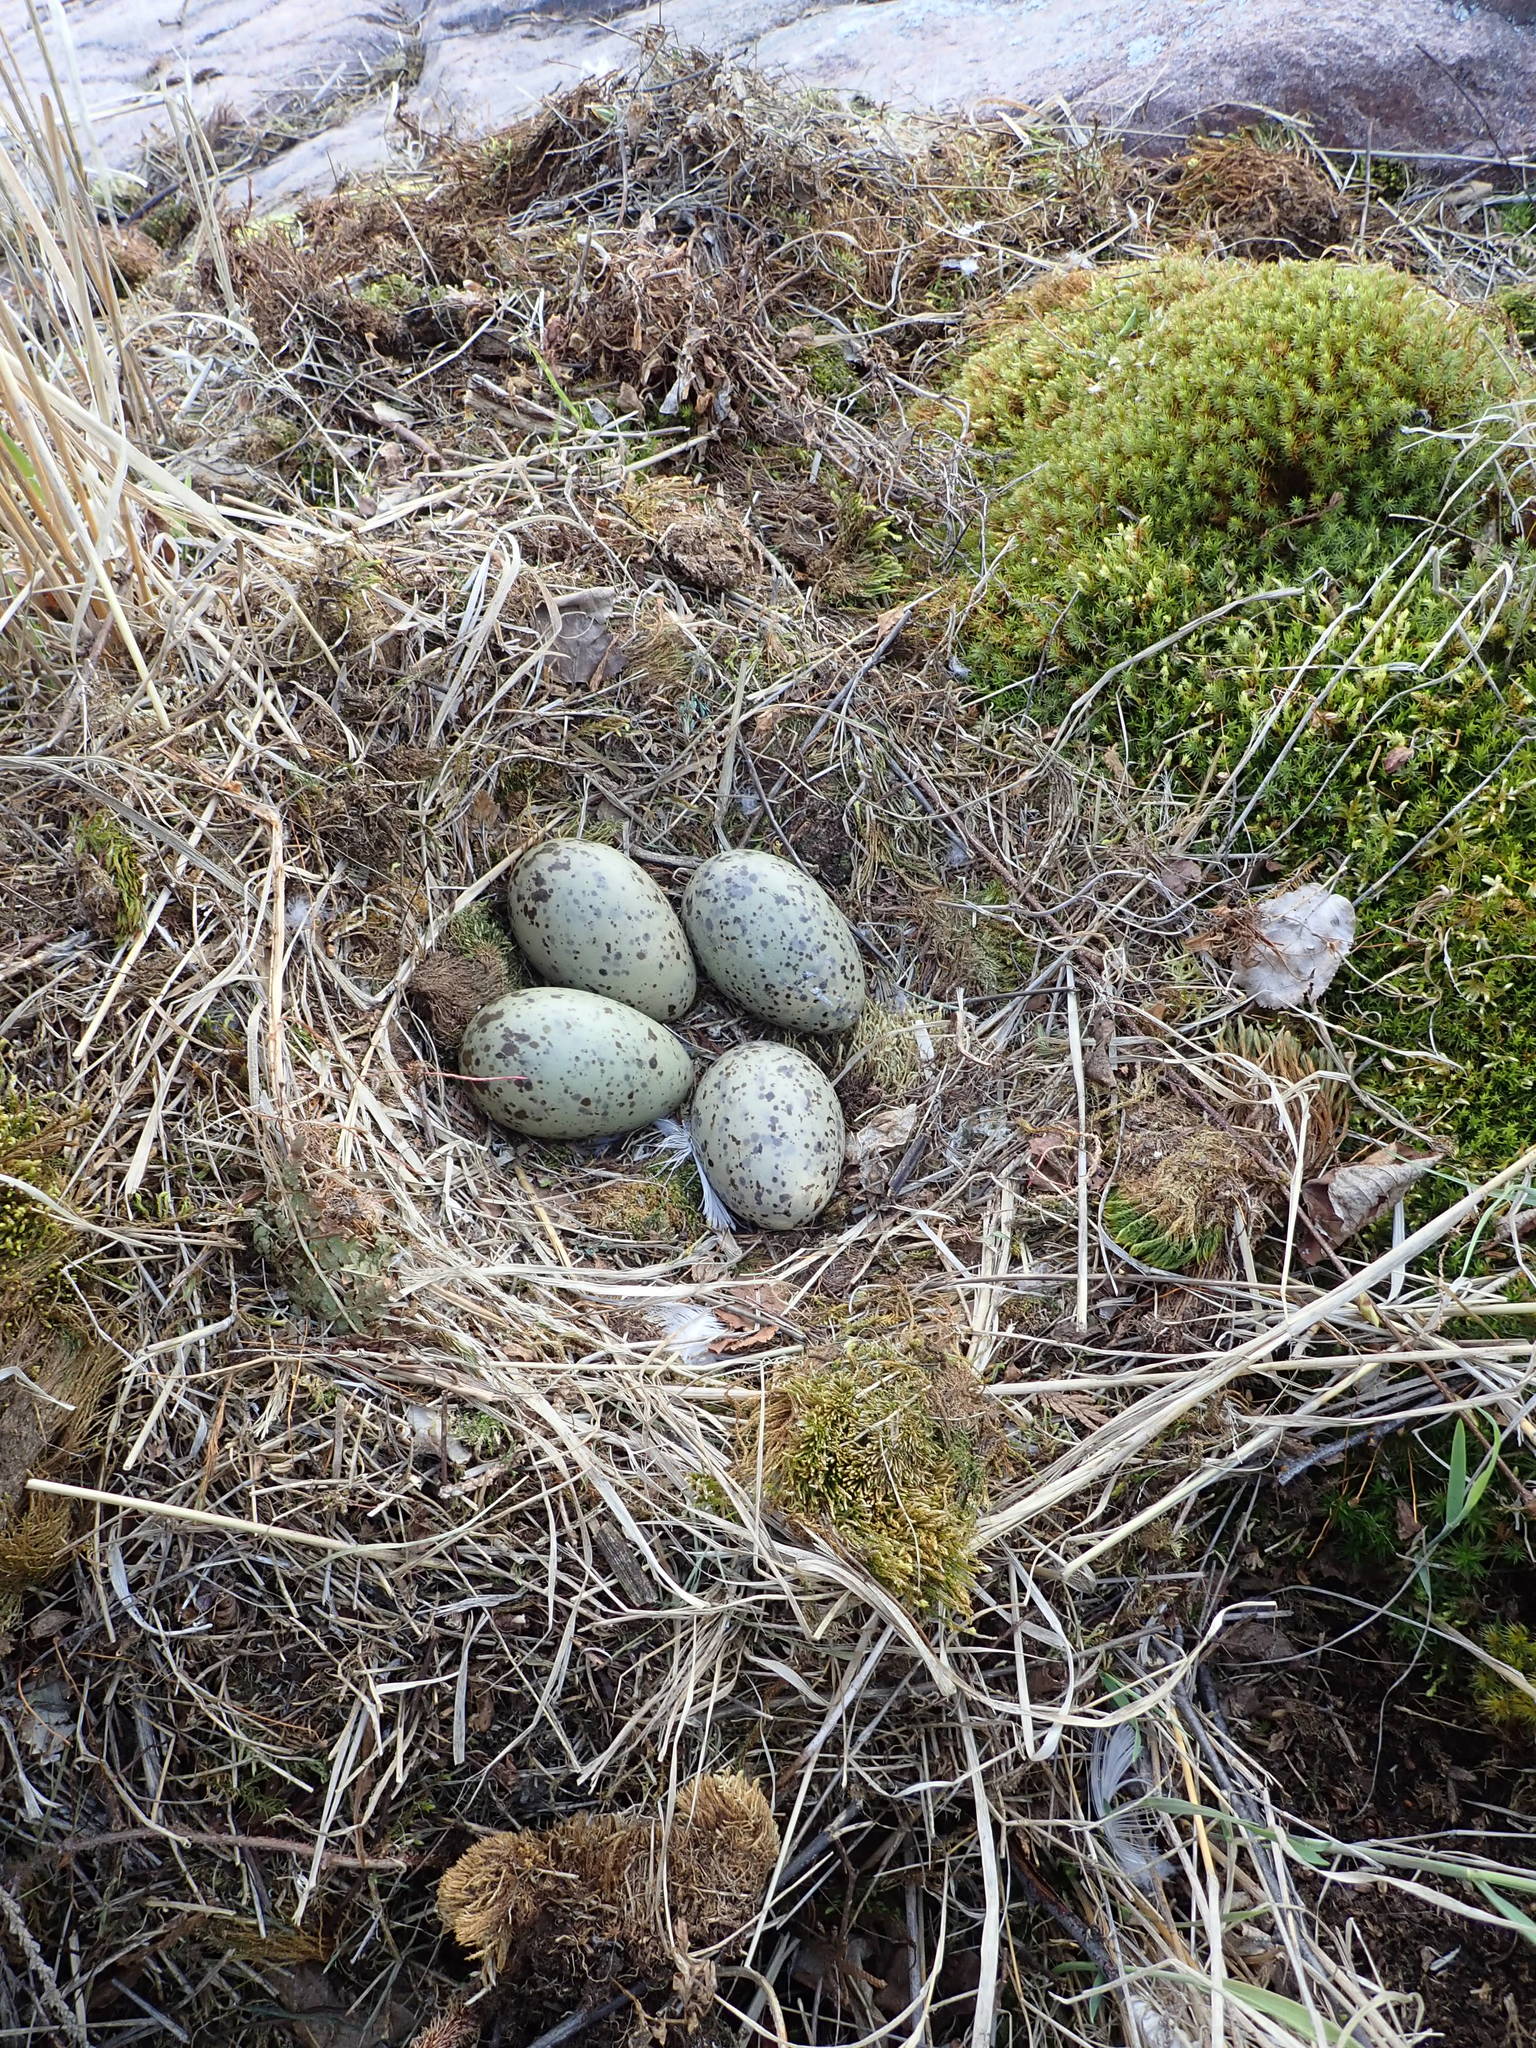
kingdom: Animalia
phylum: Chordata
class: Aves
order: Charadriiformes
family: Laridae
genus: Larus
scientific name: Larus argentatus
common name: Herring gull
